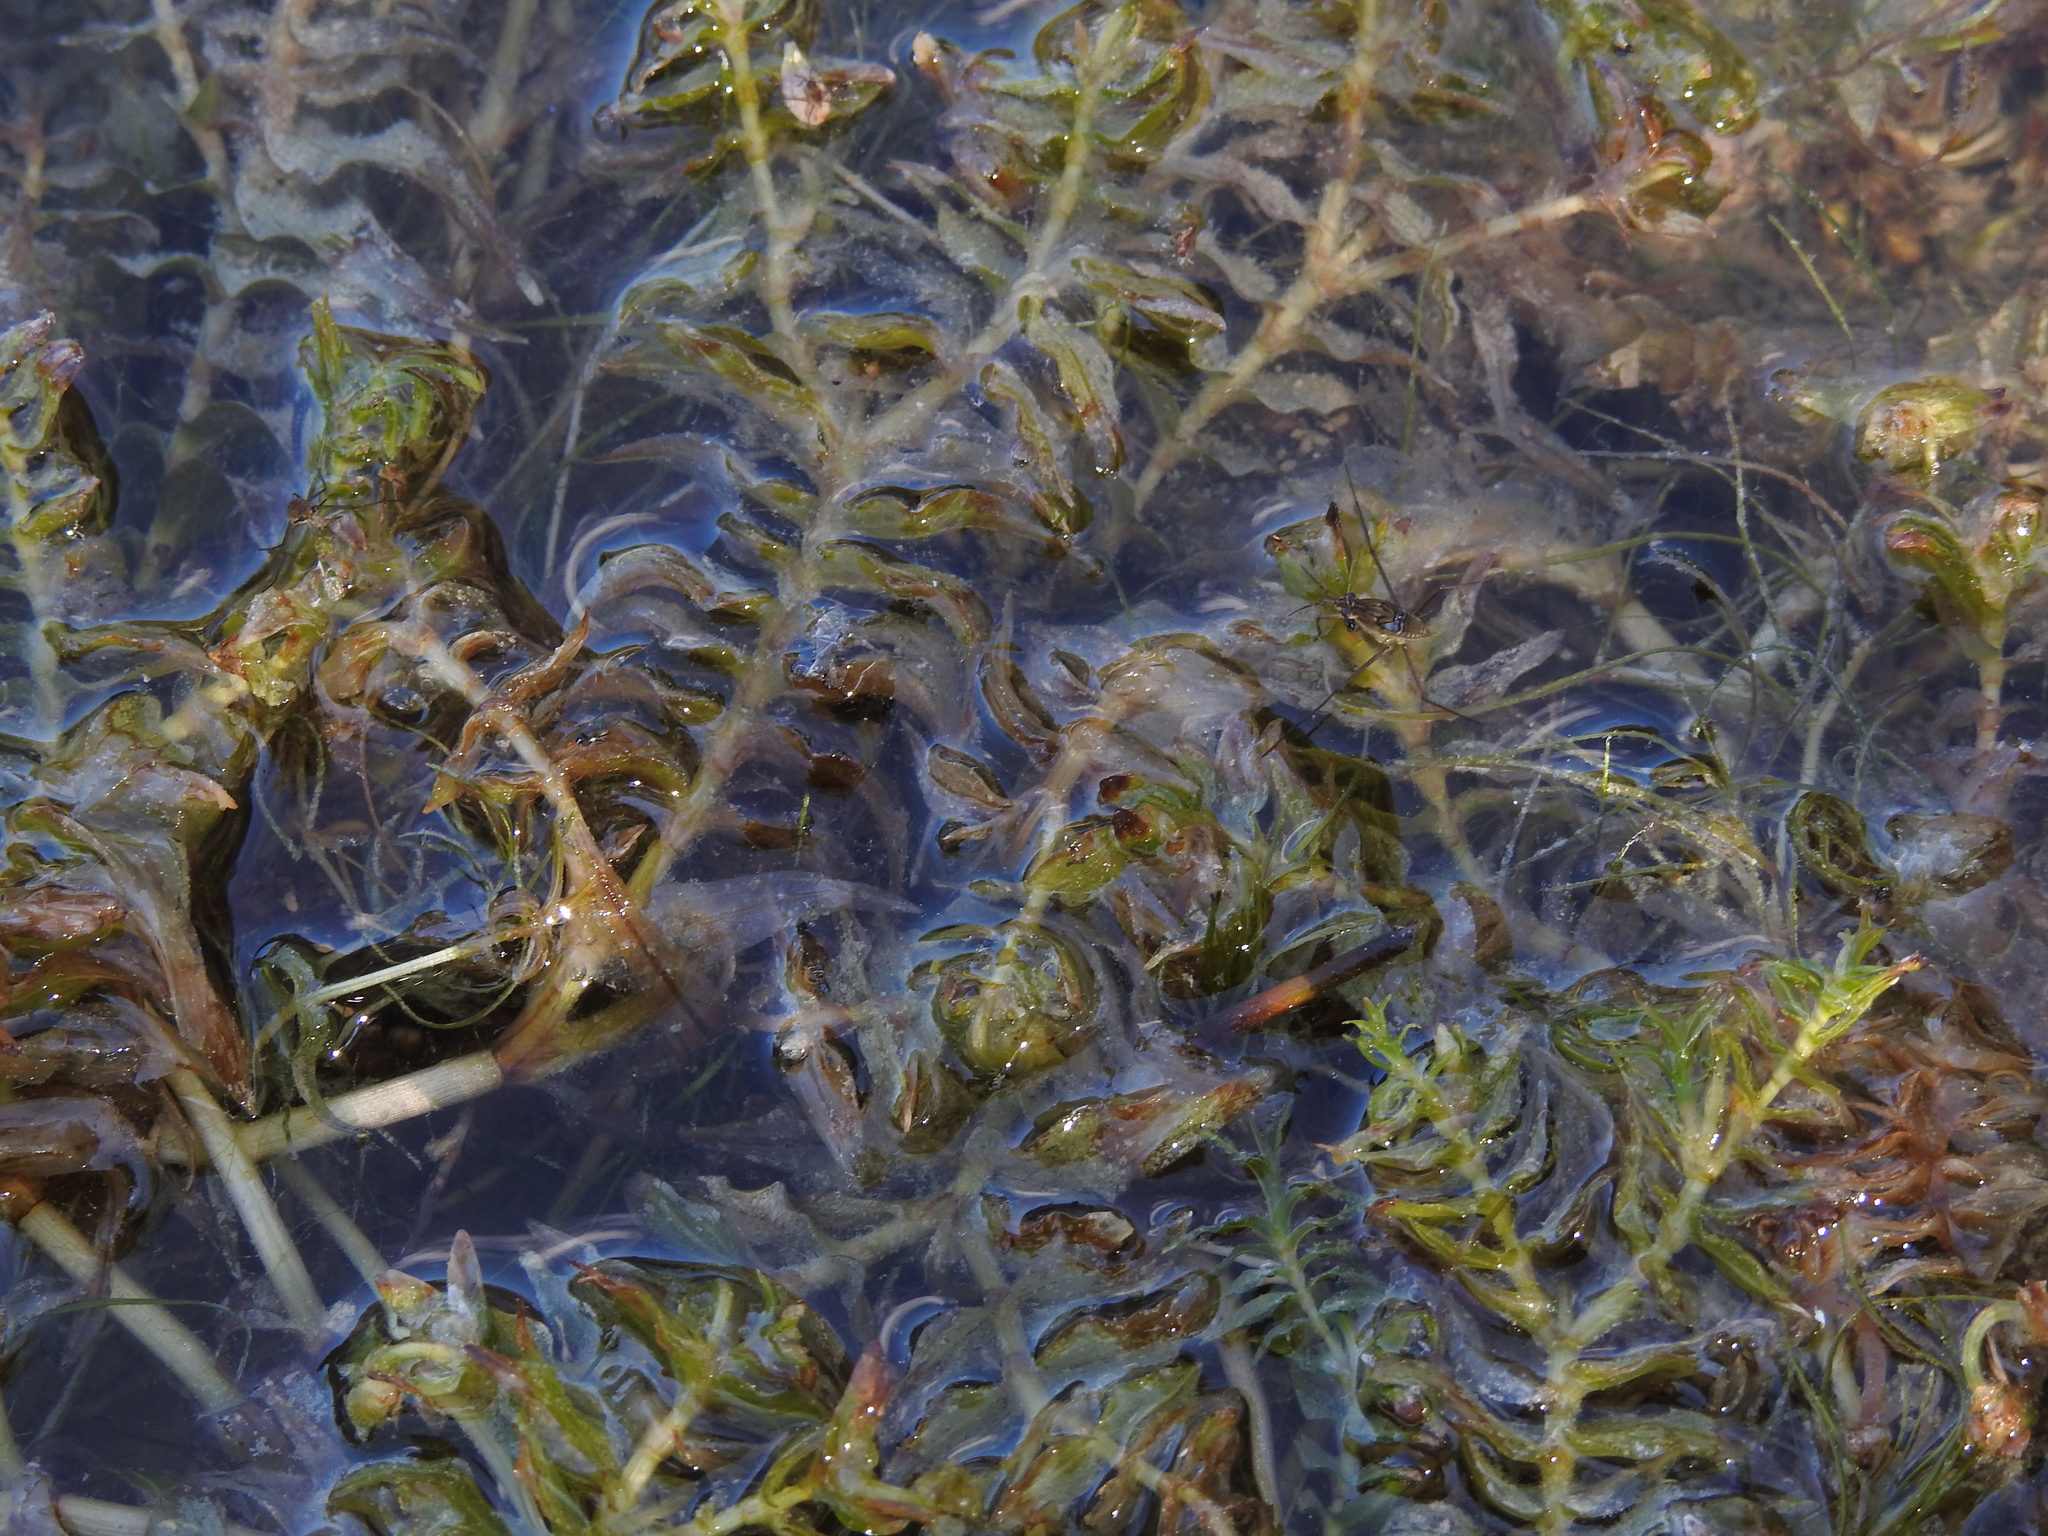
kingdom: Plantae
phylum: Tracheophyta
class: Liliopsida
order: Alismatales
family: Potamogetonaceae
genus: Groenlandia
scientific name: Groenlandia densa
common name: Opposite-leaved pondweed
